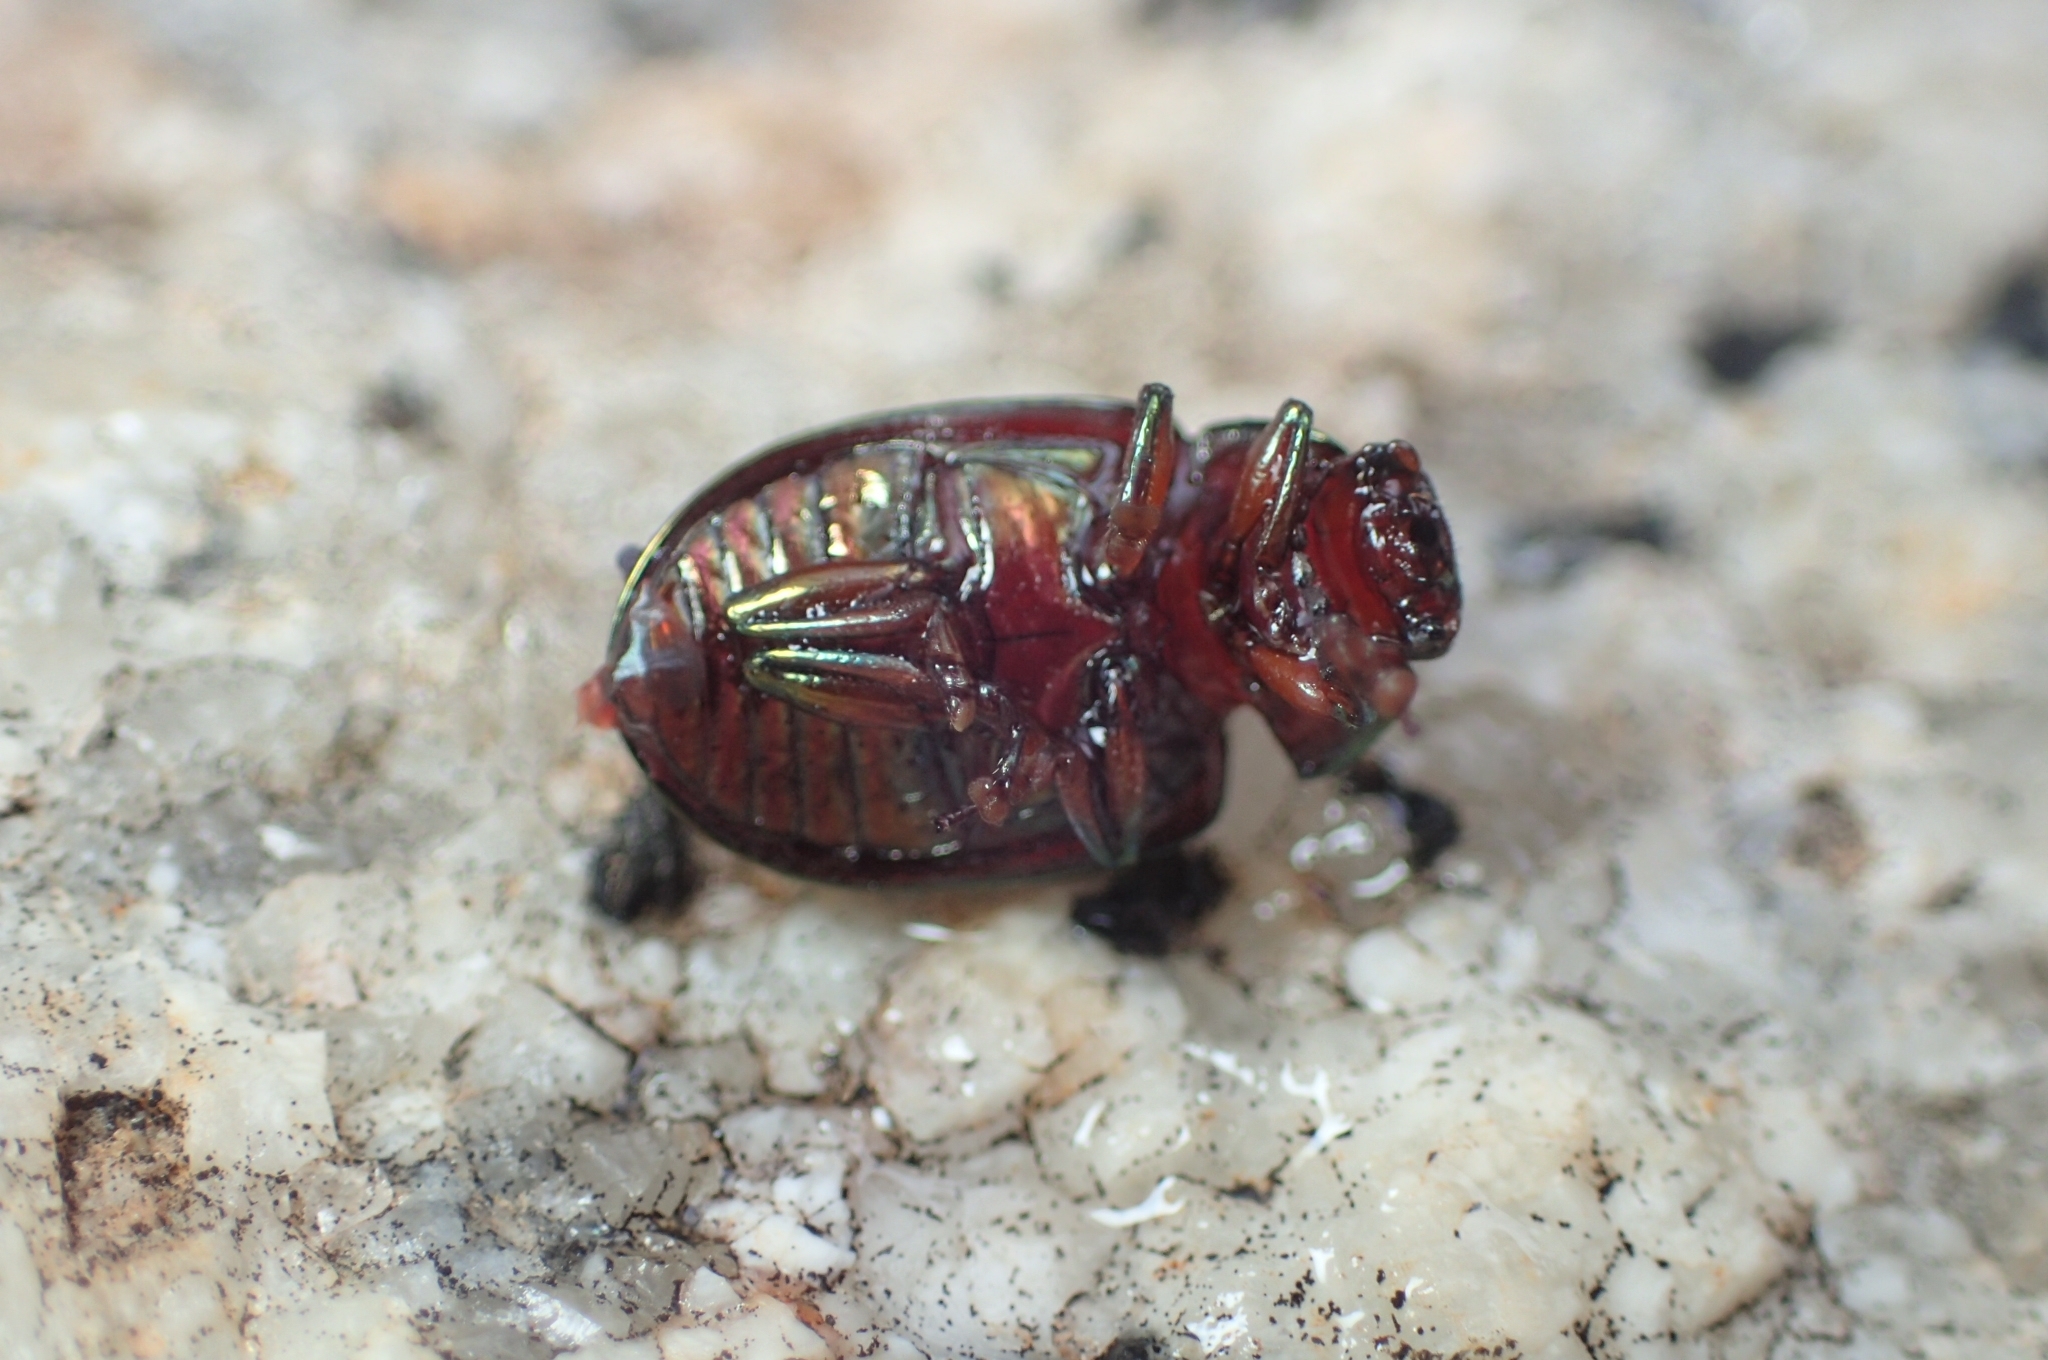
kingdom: Animalia
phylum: Arthropoda
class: Insecta
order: Coleoptera
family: Chrysomelidae
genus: Chrysolina
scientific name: Chrysolina americana
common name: Rosemary beetle
